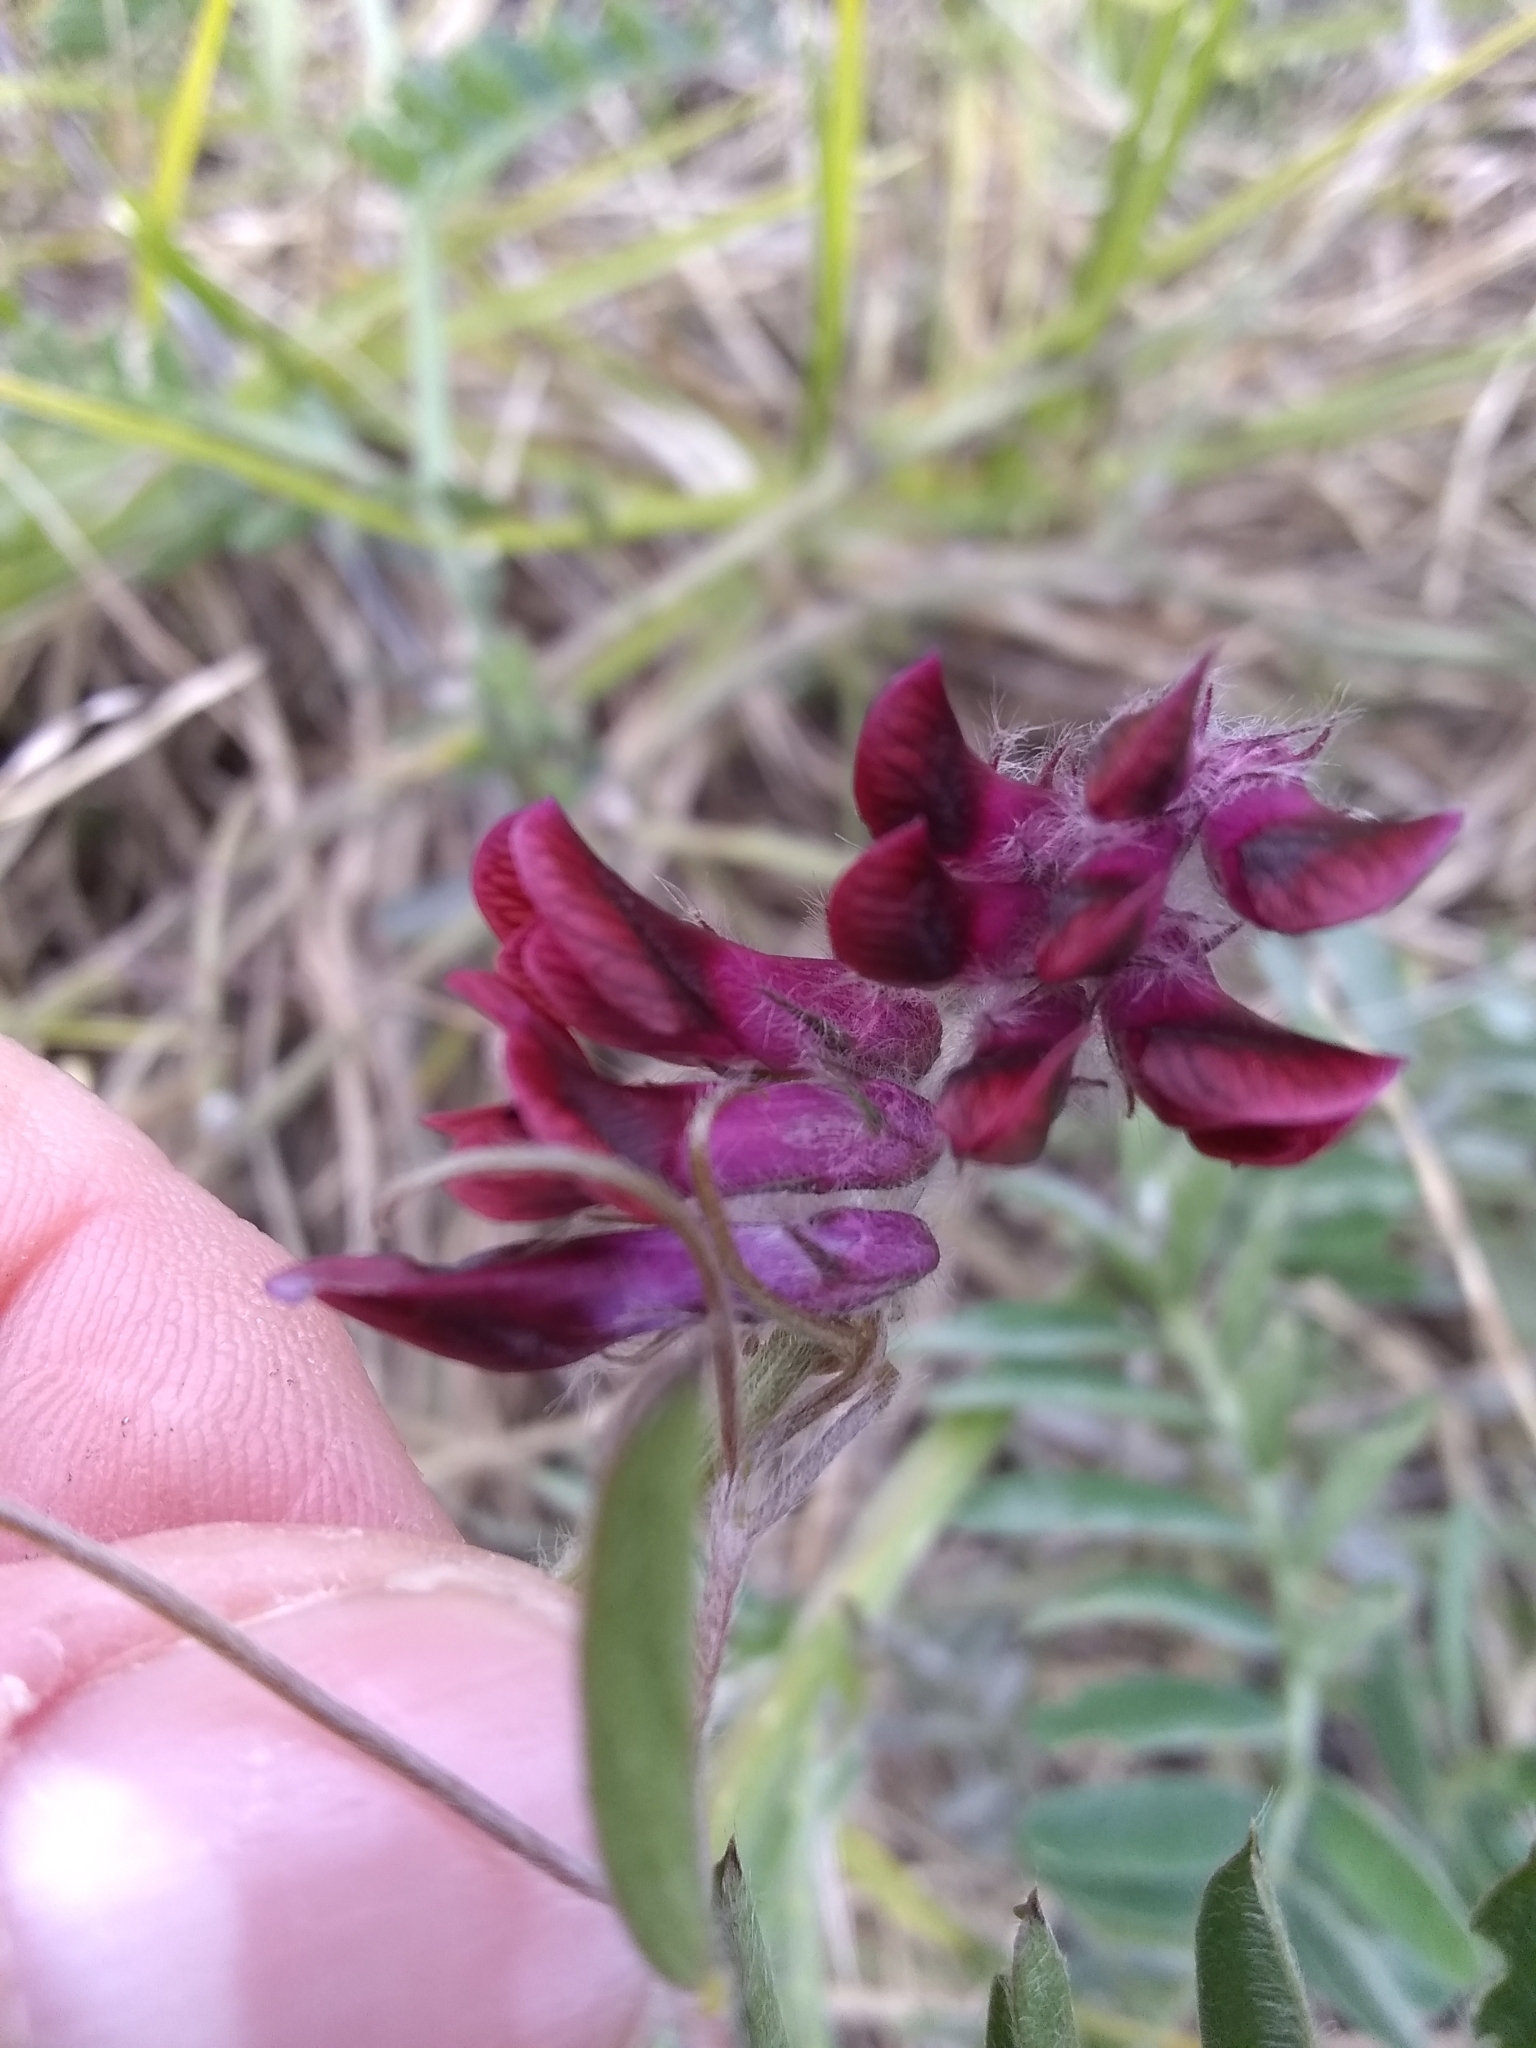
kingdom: Plantae
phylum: Tracheophyta
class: Magnoliopsida
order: Fabales
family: Fabaceae
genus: Vicia
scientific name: Vicia benghalensis
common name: Purple vetch
